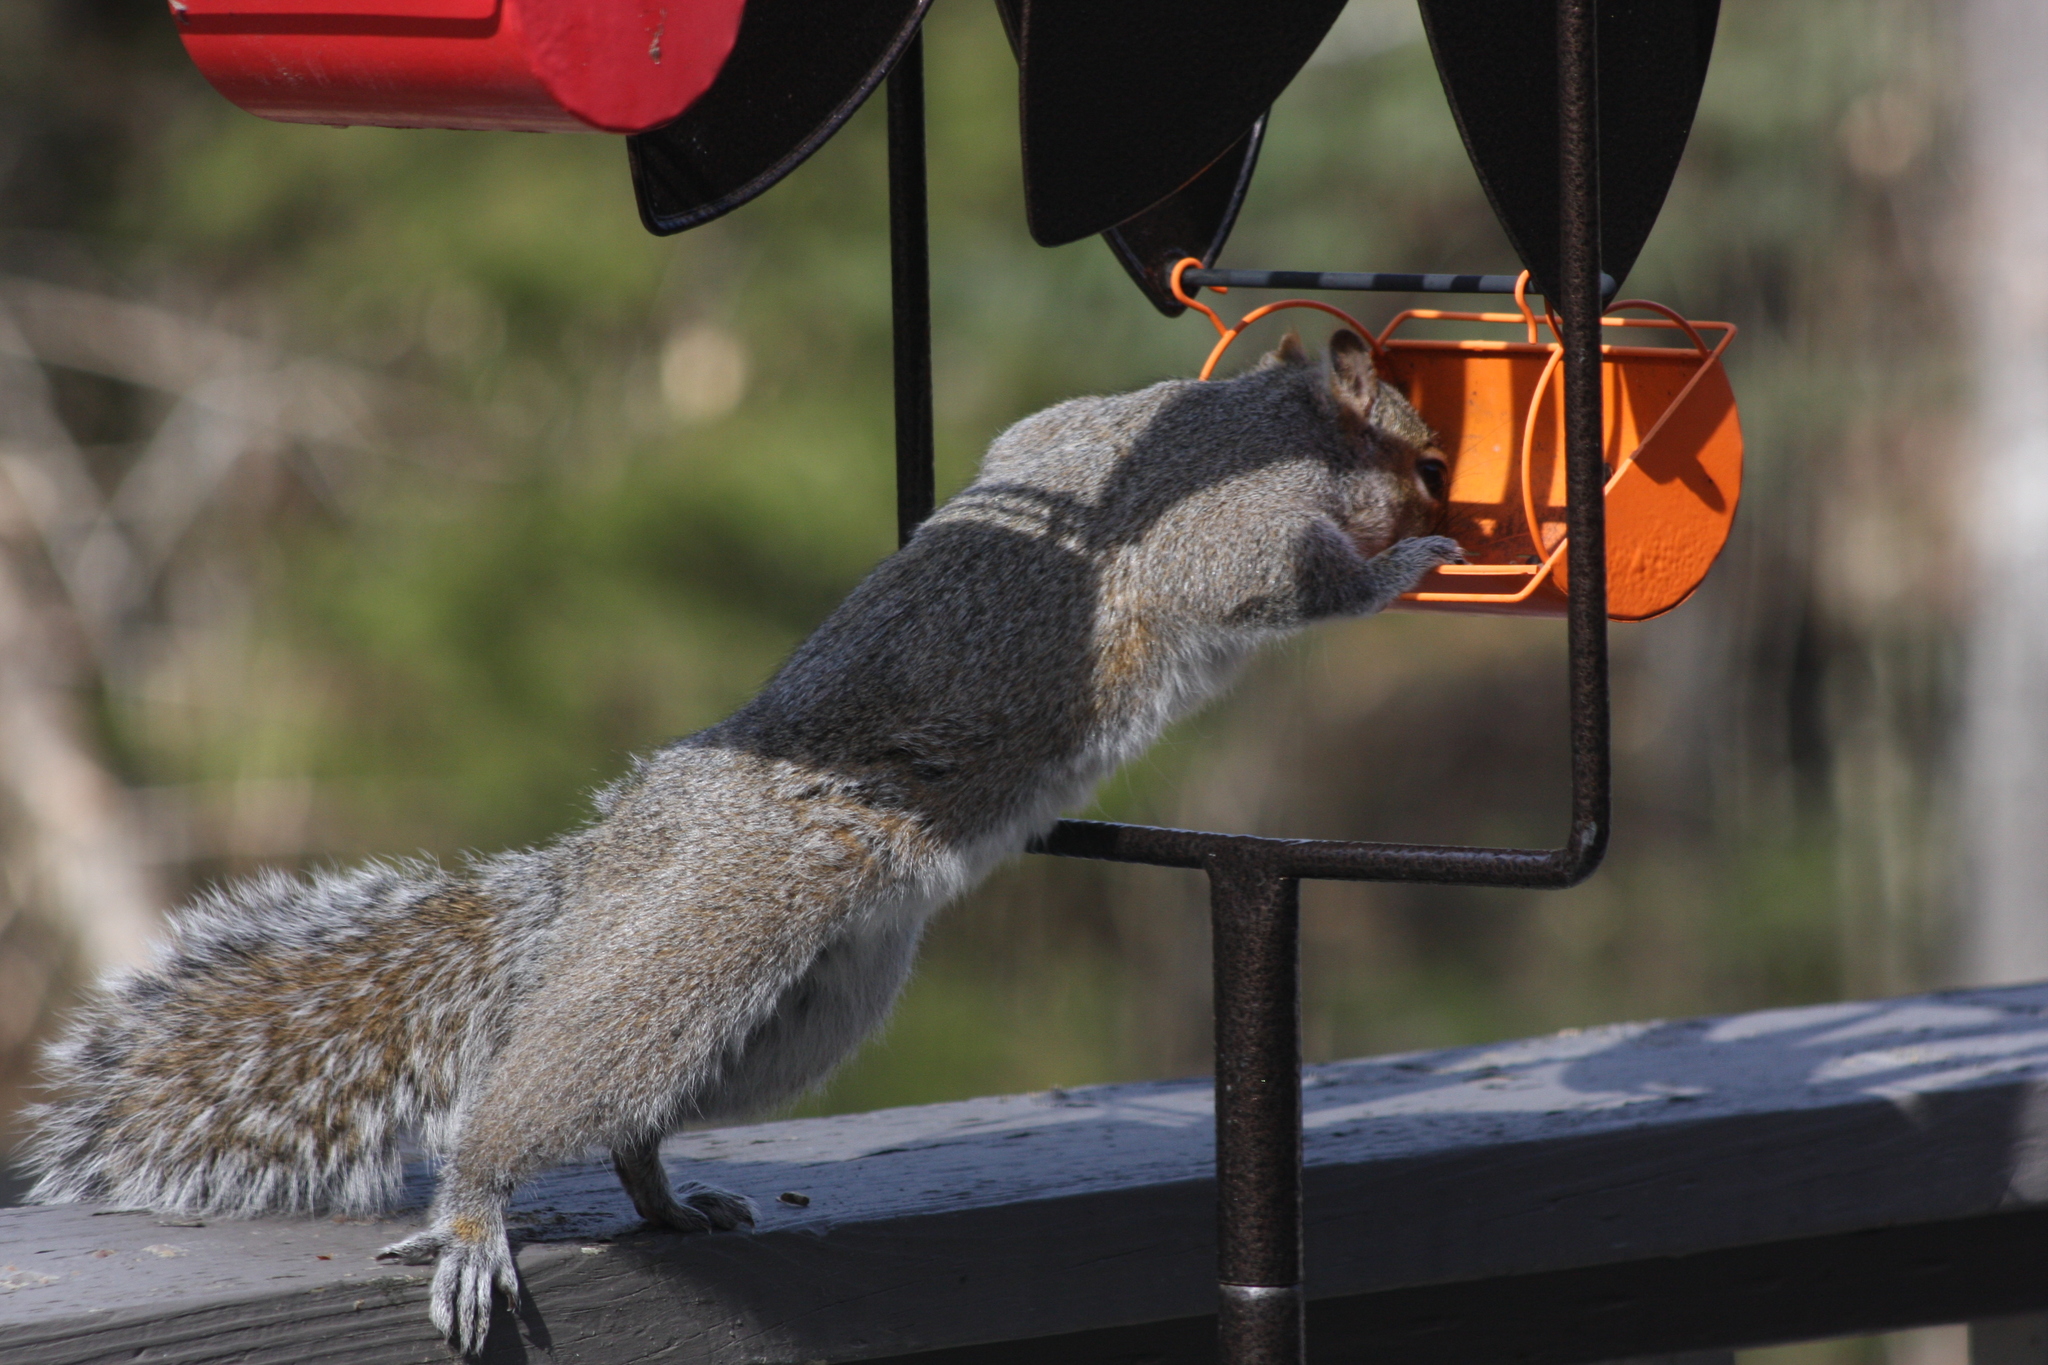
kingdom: Animalia
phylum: Chordata
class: Mammalia
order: Rodentia
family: Sciuridae
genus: Sciurus
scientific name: Sciurus carolinensis
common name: Eastern gray squirrel
